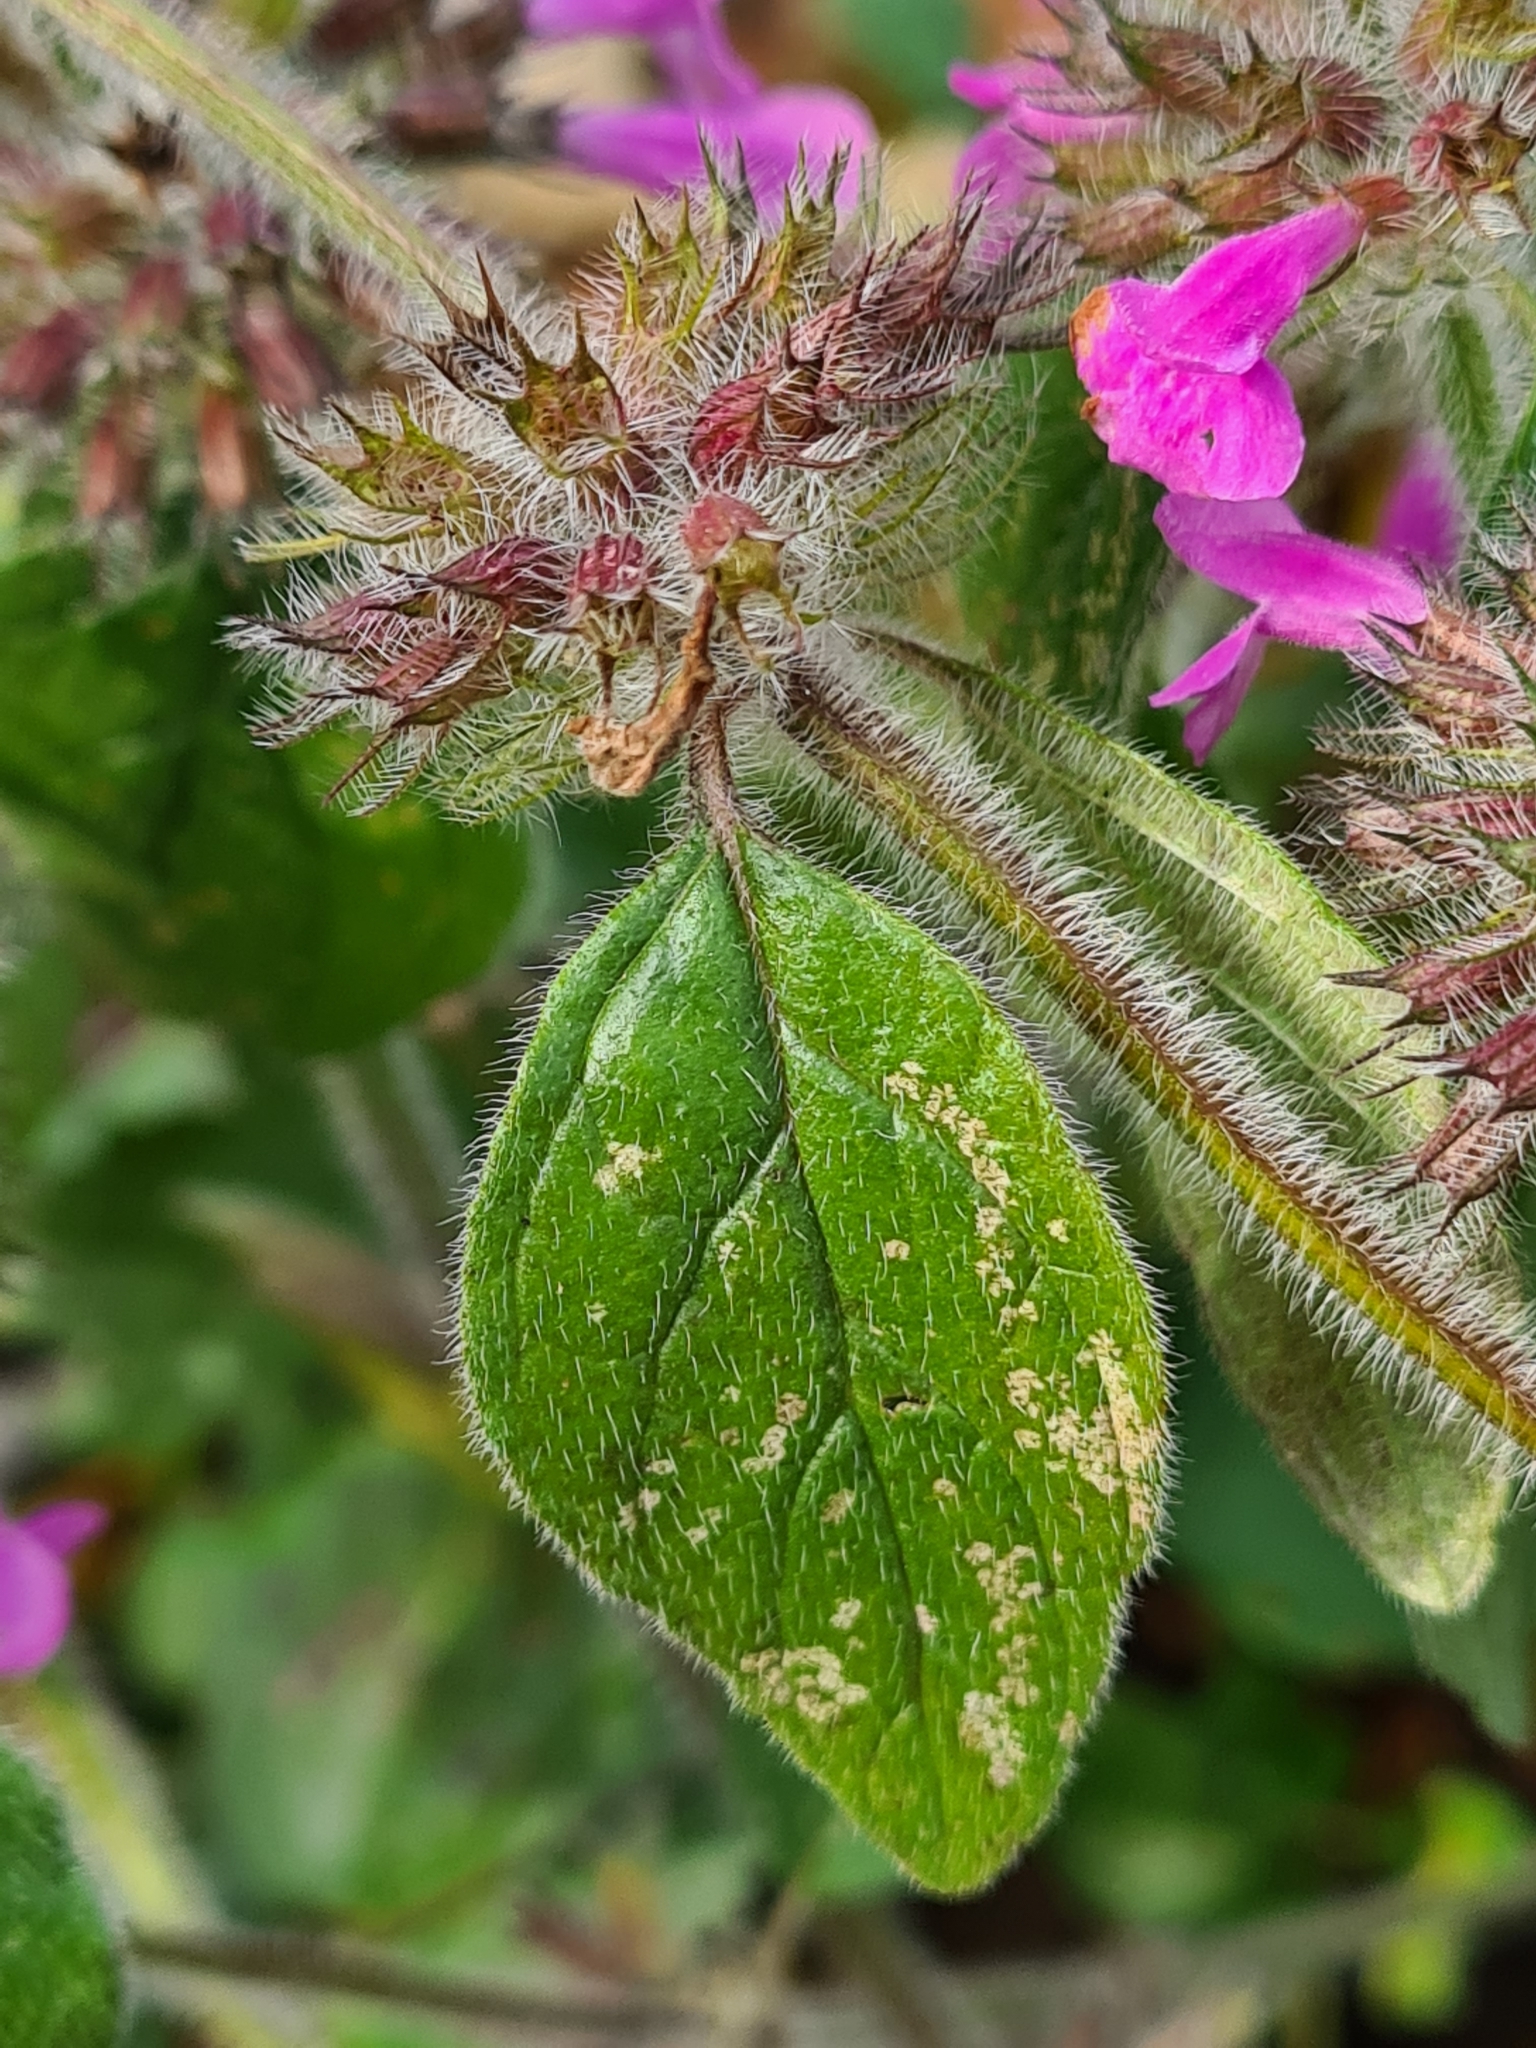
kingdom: Plantae
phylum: Tracheophyta
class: Magnoliopsida
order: Lamiales
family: Lamiaceae
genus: Clinopodium
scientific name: Clinopodium vulgare
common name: Wild basil
